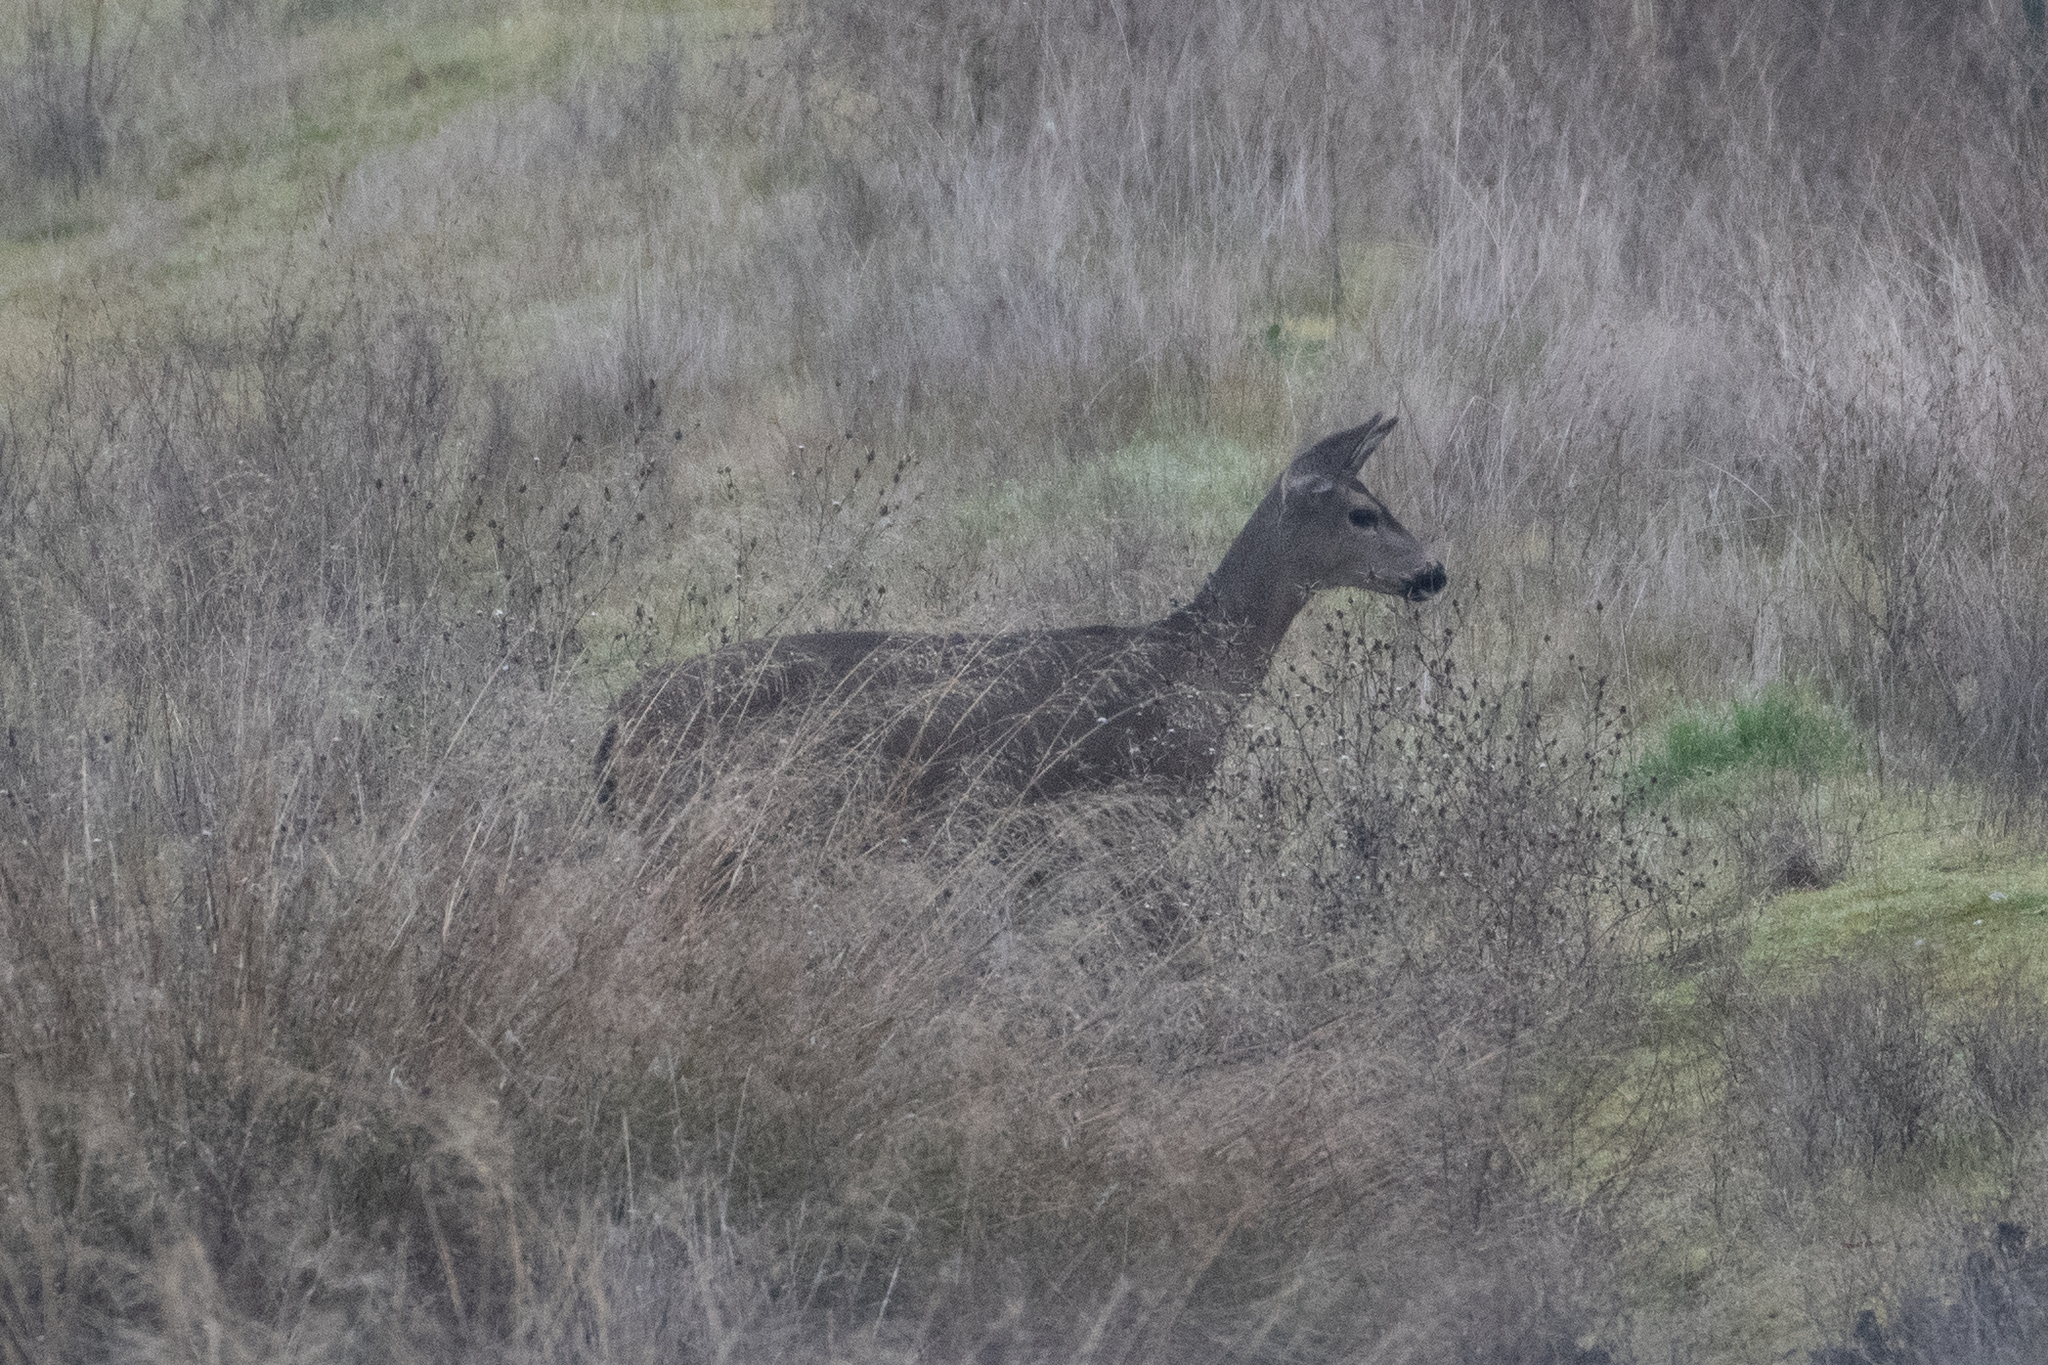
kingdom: Animalia
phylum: Chordata
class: Mammalia
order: Artiodactyla
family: Cervidae
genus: Odocoileus
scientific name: Odocoileus hemionus
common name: Mule deer
